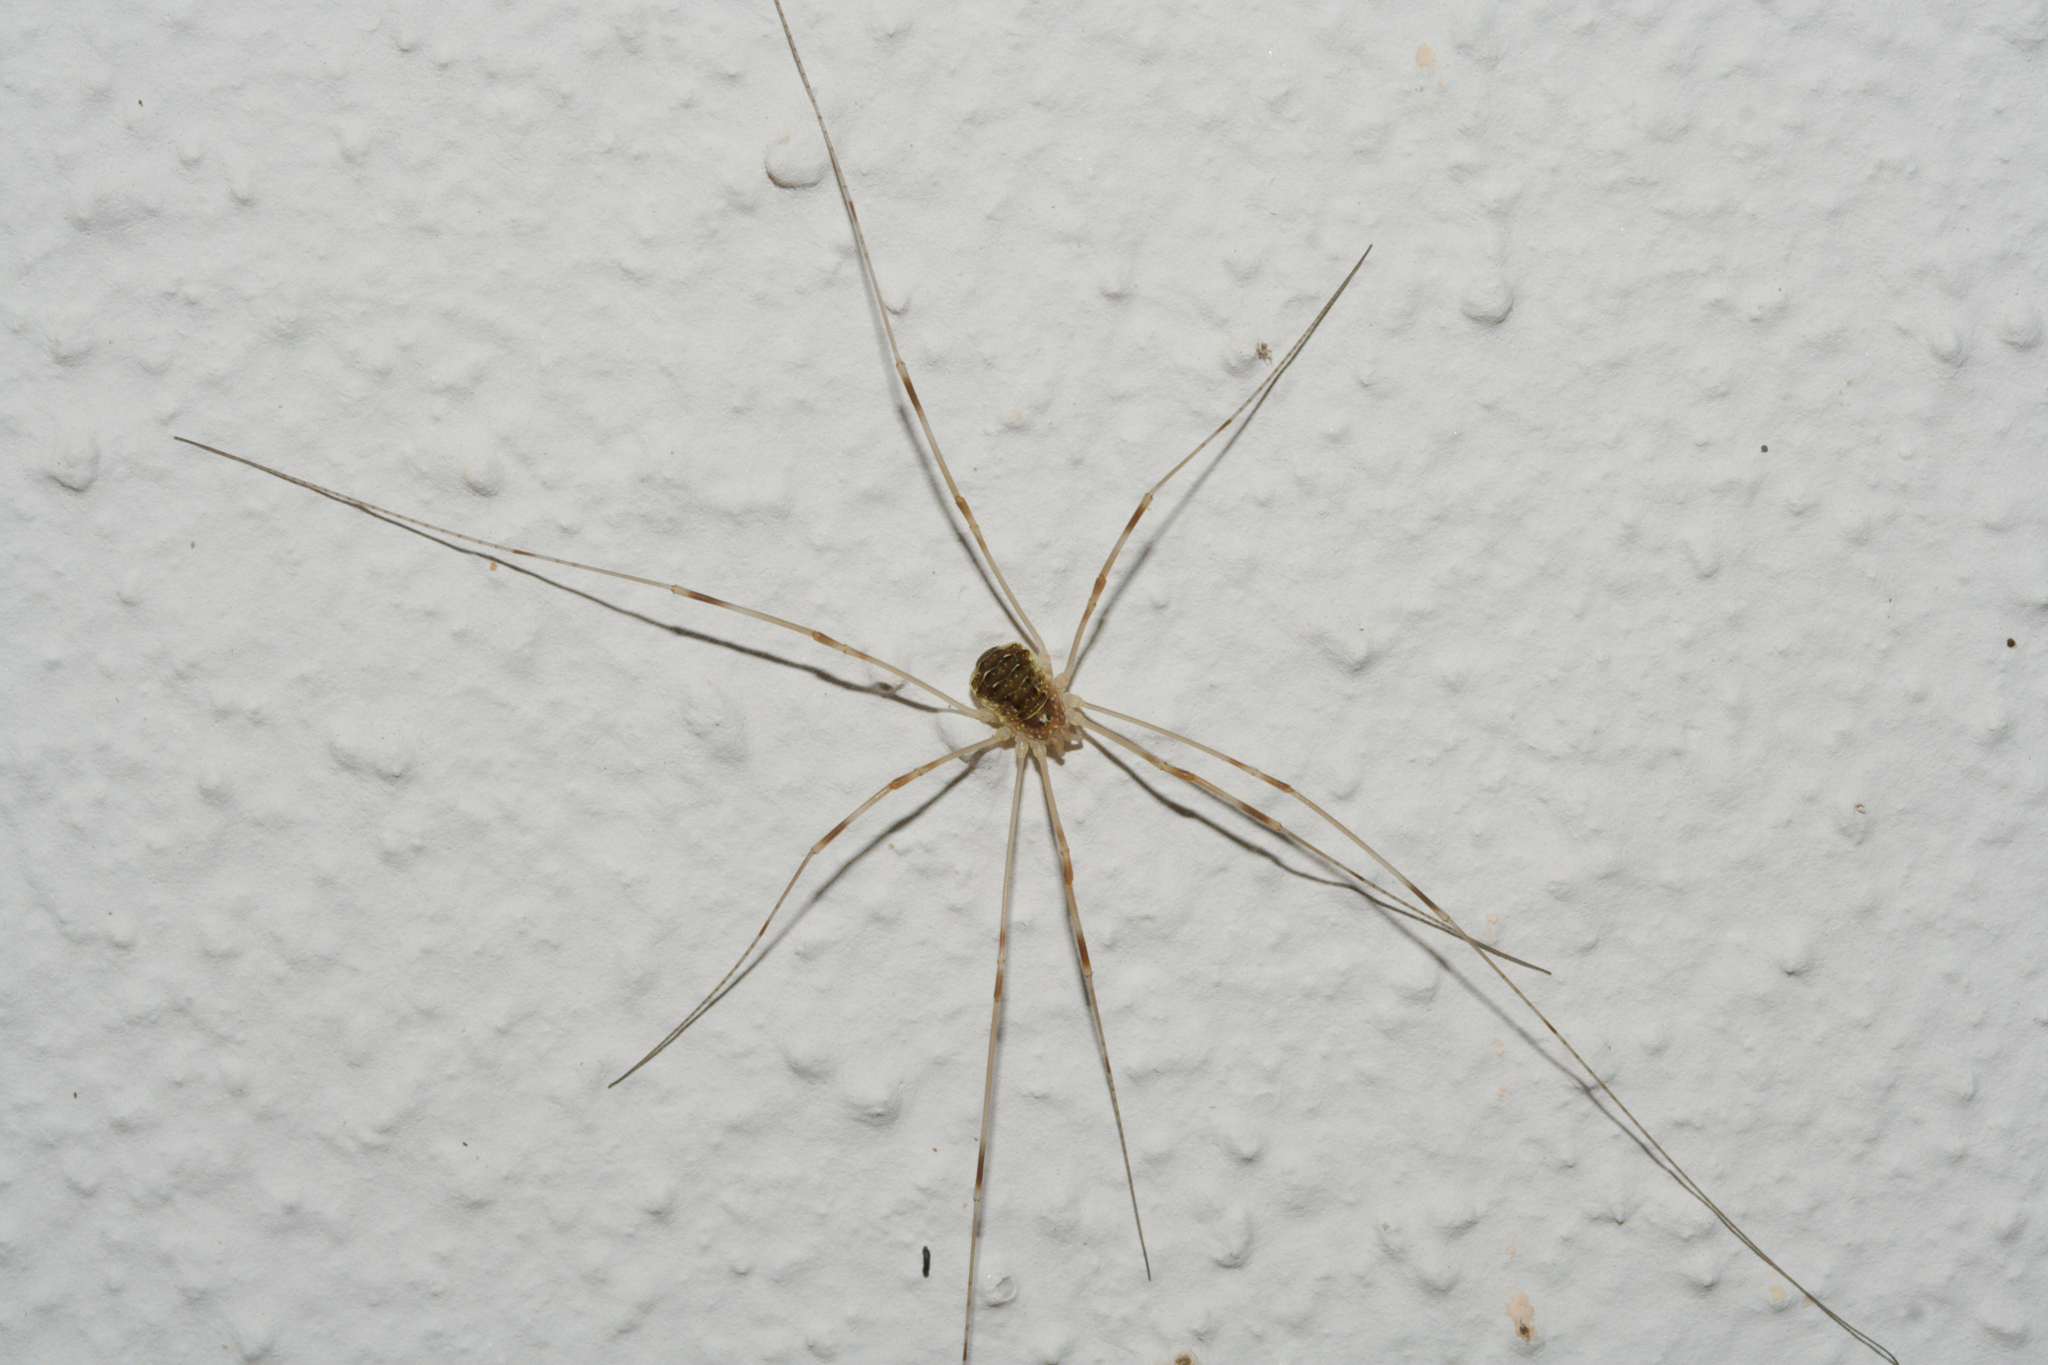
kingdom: Animalia
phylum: Arthropoda
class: Arachnida
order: Opiliones
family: Phalangiidae
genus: Opilio
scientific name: Opilio canestrinii
